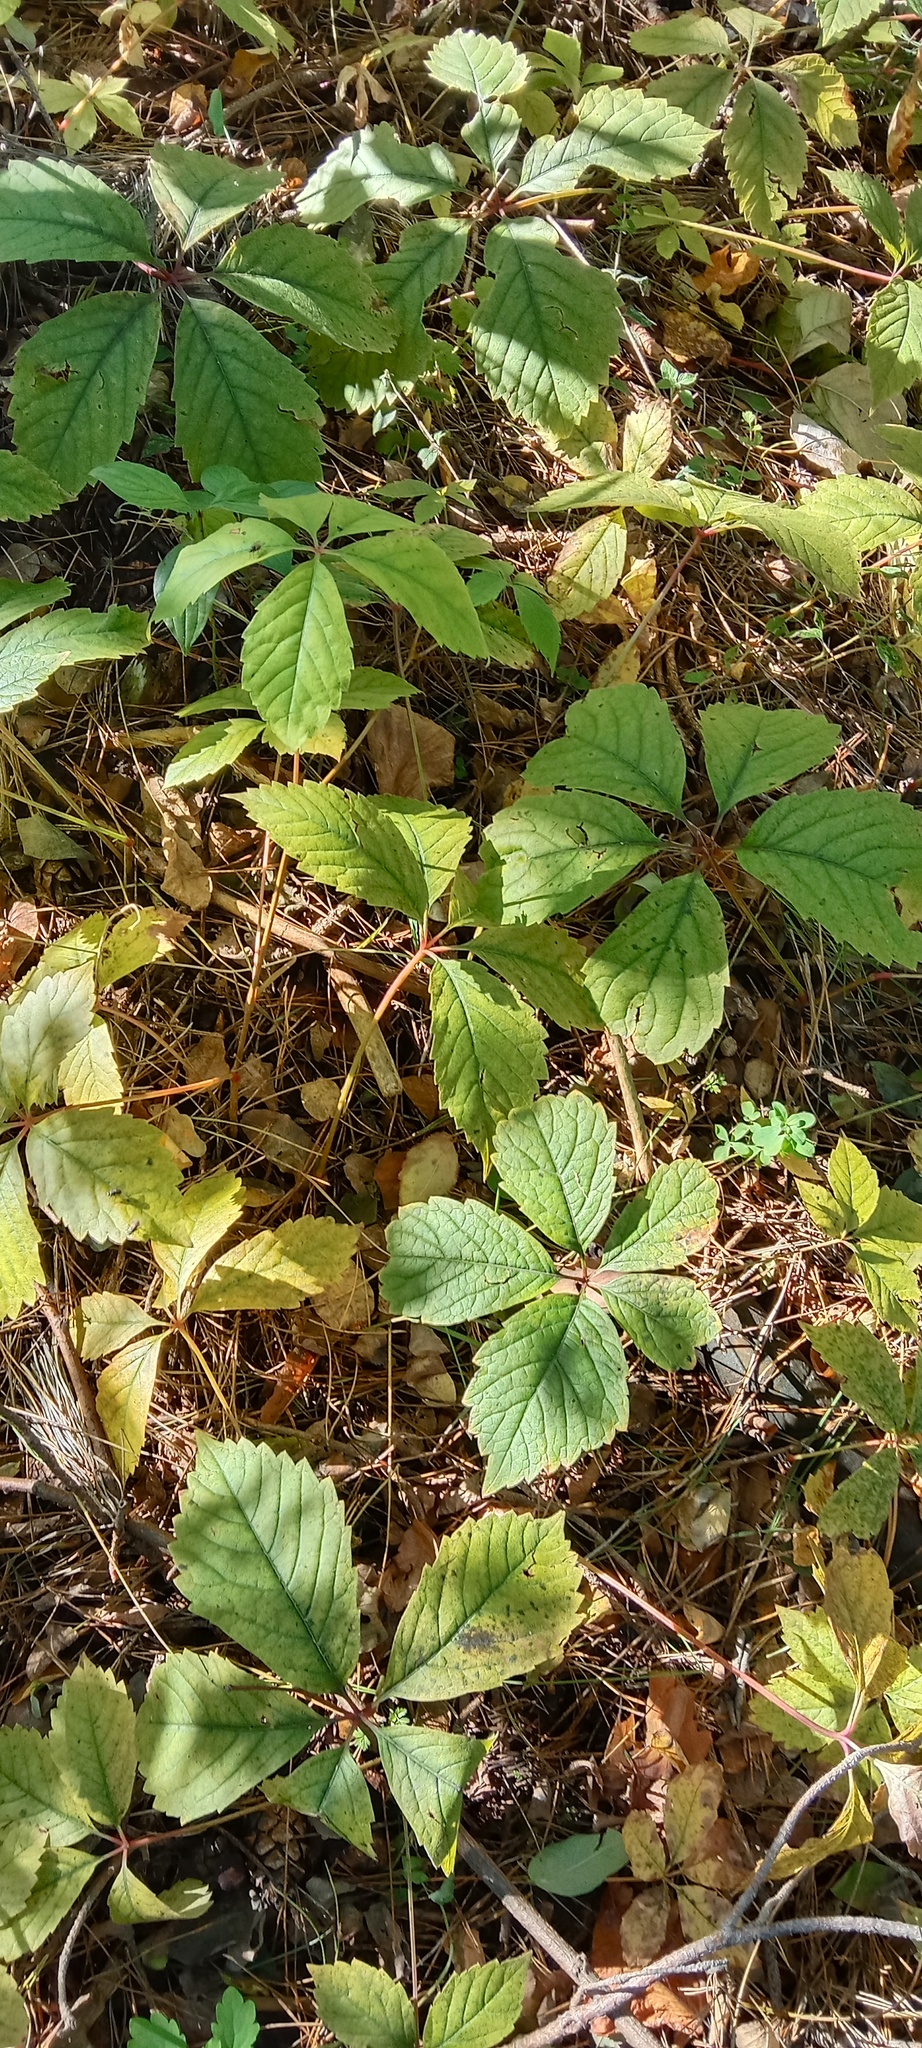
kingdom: Plantae
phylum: Tracheophyta
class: Magnoliopsida
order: Vitales
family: Vitaceae
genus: Parthenocissus
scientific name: Parthenocissus inserta
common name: False virginia-creeper
